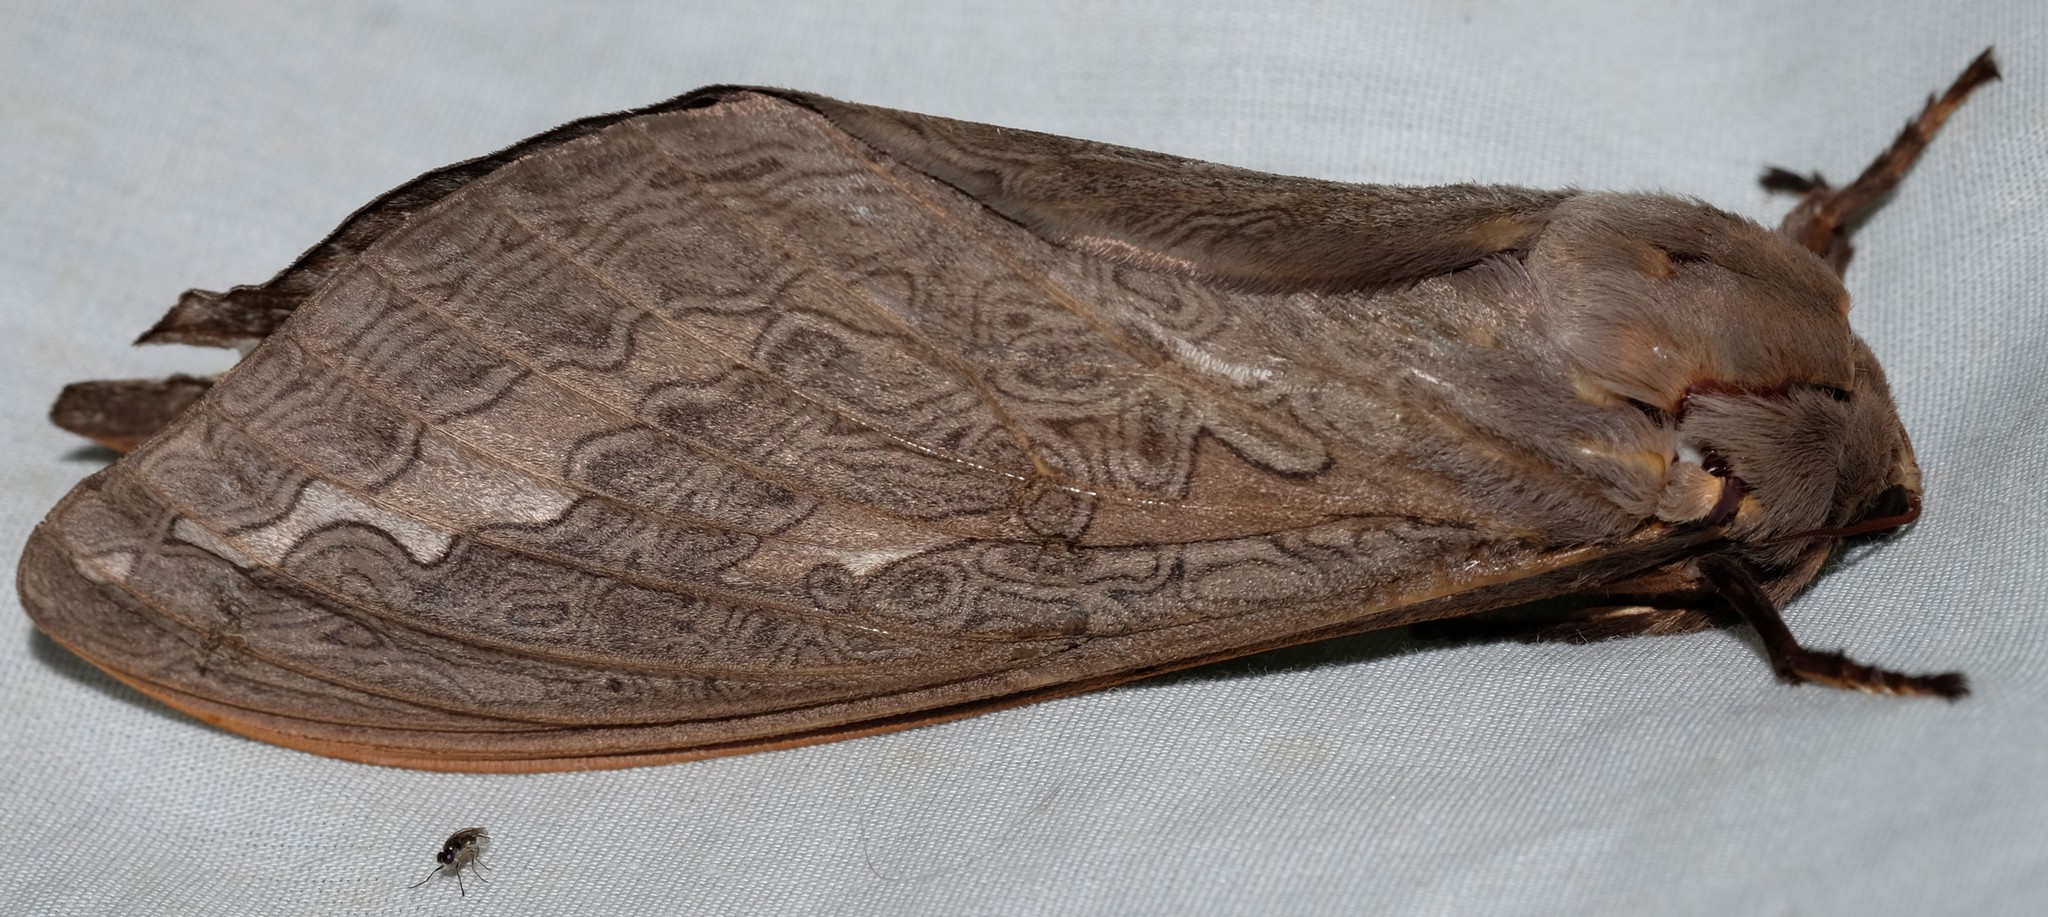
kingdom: Animalia
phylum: Arthropoda
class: Insecta
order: Lepidoptera
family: Hepialidae
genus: Abantiades
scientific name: Abantiades labyrinthicus
